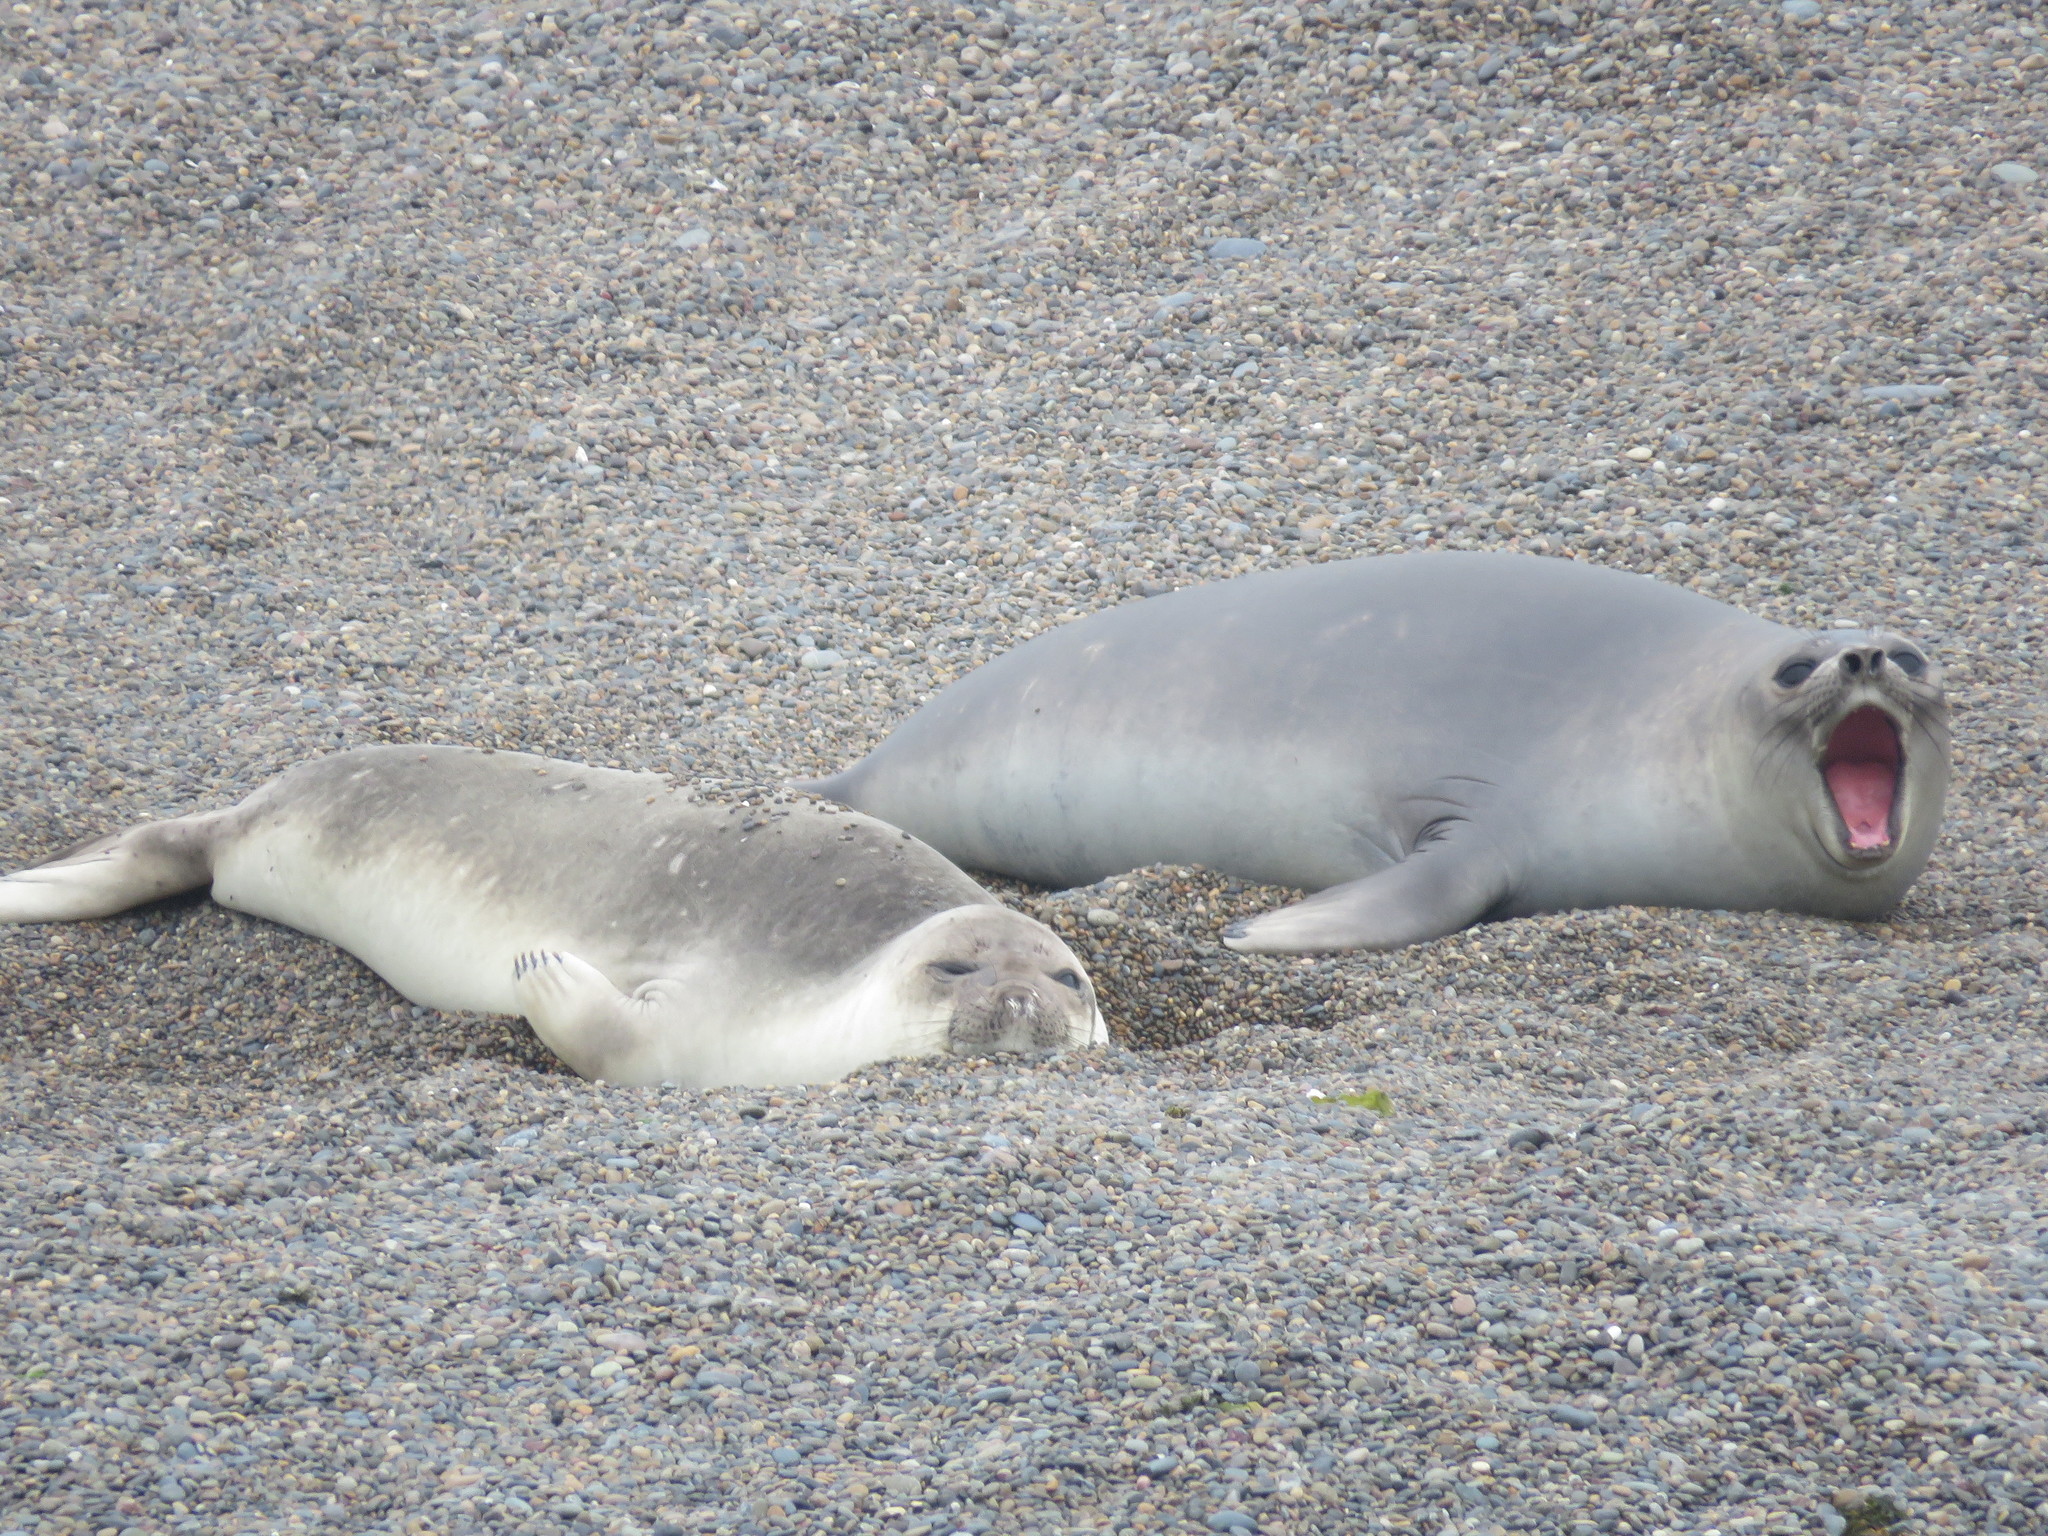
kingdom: Animalia
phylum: Chordata
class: Mammalia
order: Carnivora
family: Phocidae
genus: Mirounga
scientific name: Mirounga leonina
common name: Southern elephant seal
